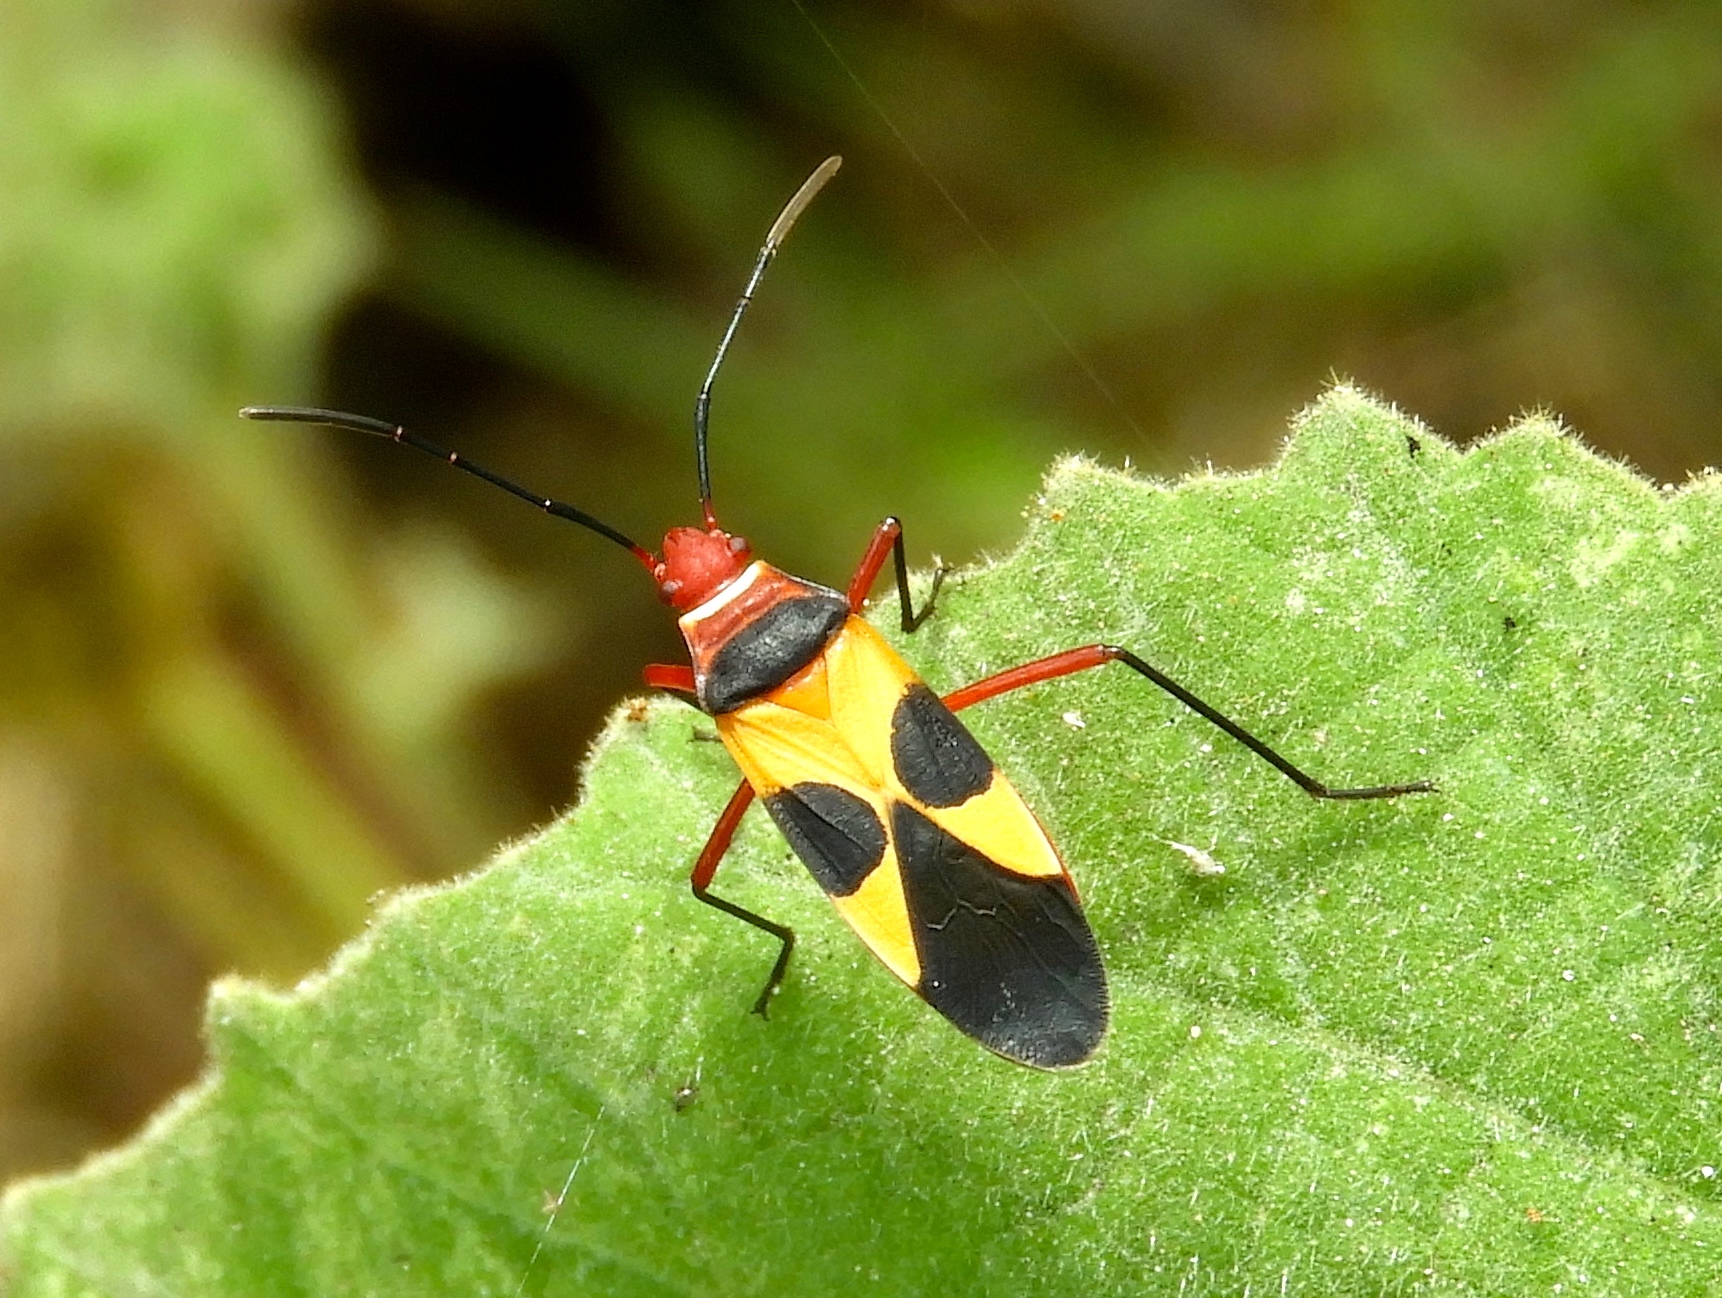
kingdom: Animalia
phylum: Arthropoda
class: Insecta
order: Hemiptera
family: Pyrrhocoridae
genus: Dysdercus
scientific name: Dysdercus
